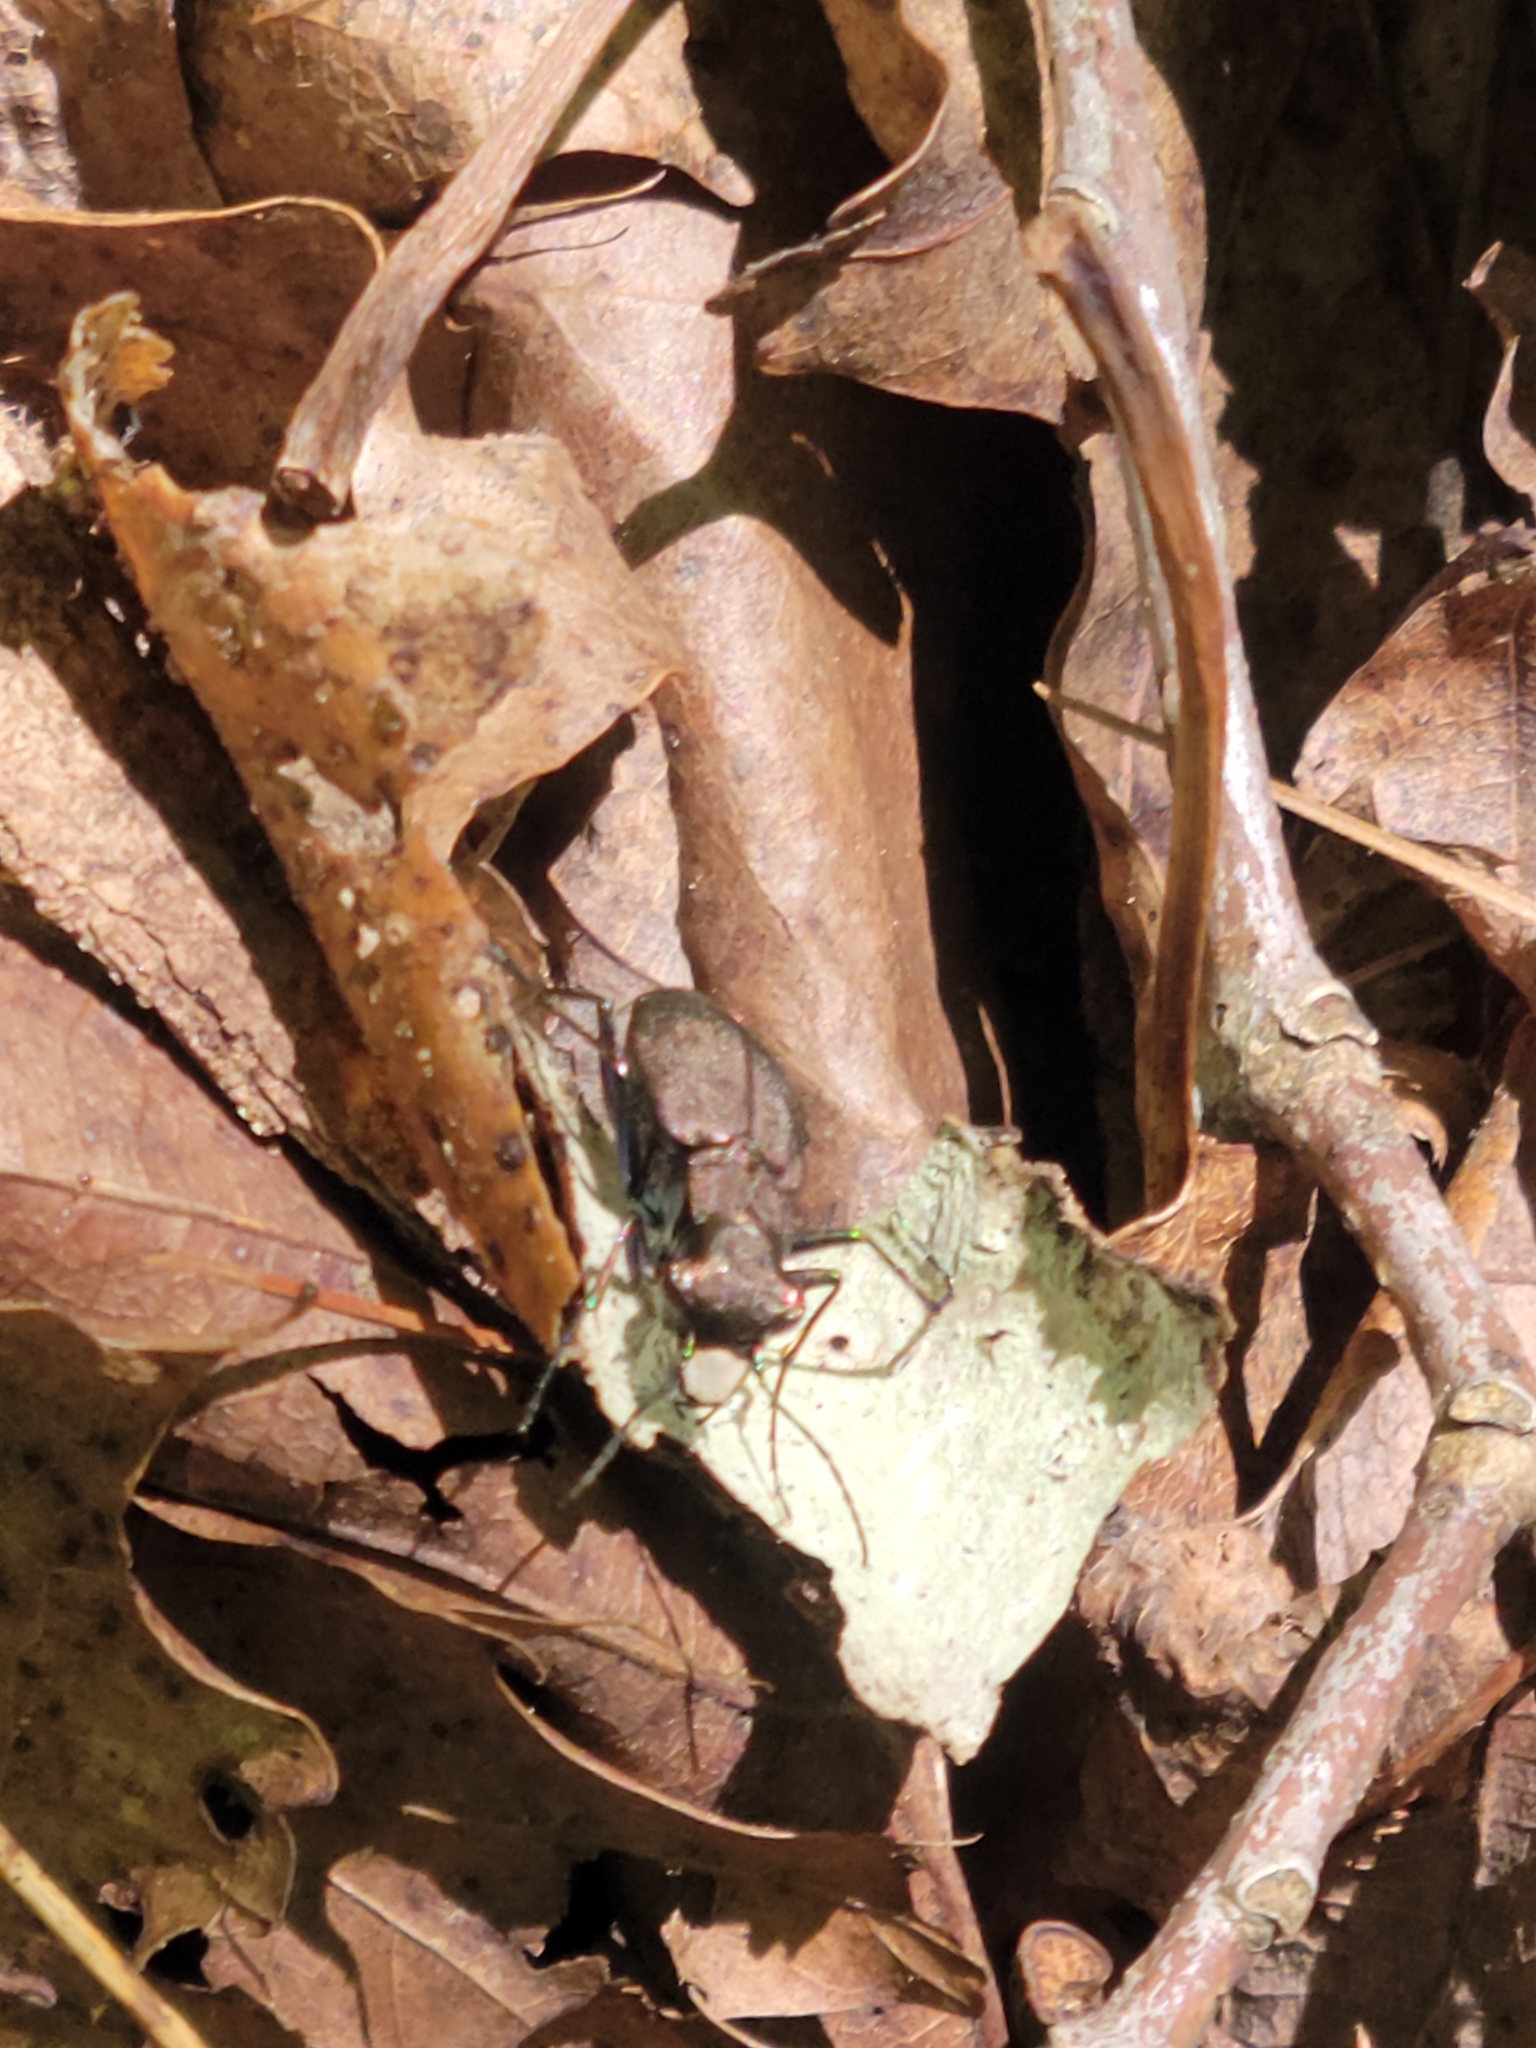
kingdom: Animalia
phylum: Arthropoda
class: Insecta
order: Coleoptera
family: Carabidae
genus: Cylindera
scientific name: Cylindera unipunctata
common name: One-spotted tiger beetle
